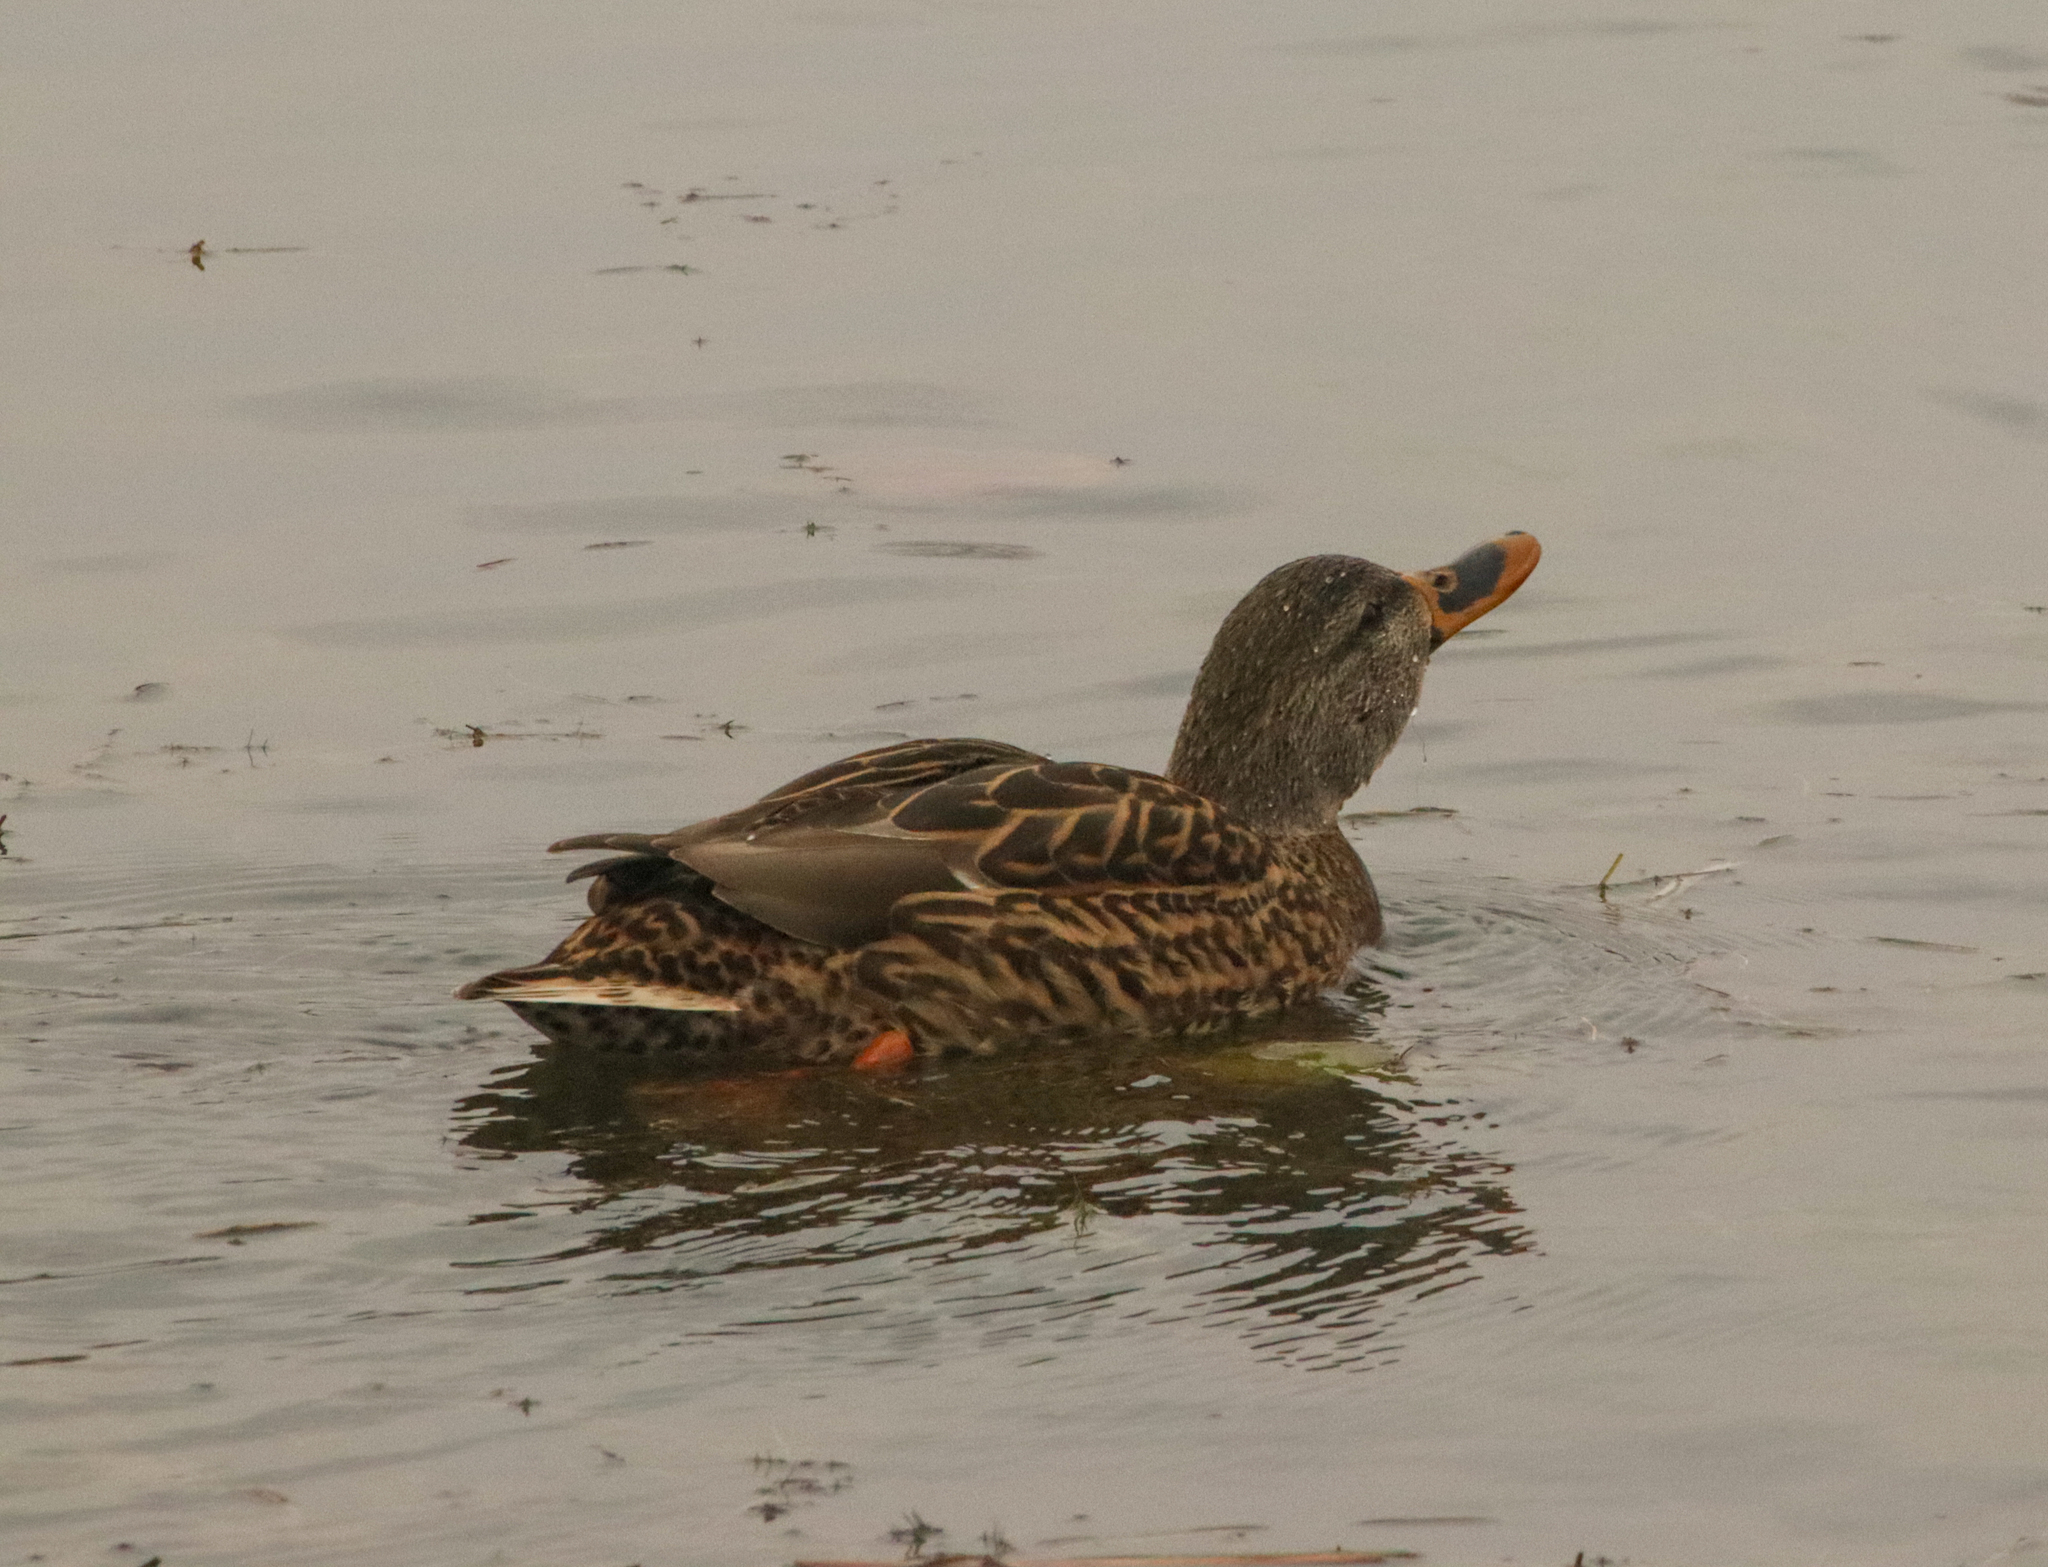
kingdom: Animalia
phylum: Chordata
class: Aves
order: Anseriformes
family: Anatidae
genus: Anas
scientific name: Anas platyrhynchos
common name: Mallard
